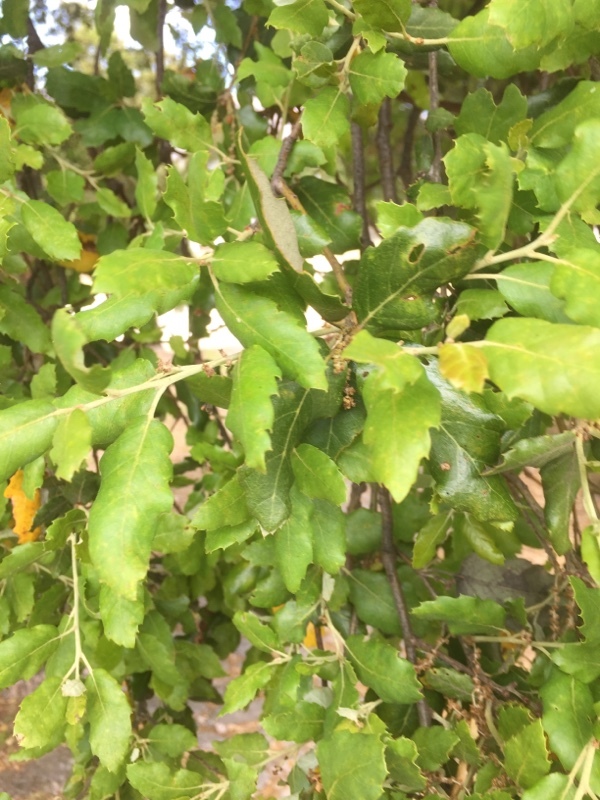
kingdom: Plantae
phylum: Tracheophyta
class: Magnoliopsida
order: Fagales
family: Fagaceae
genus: Quercus
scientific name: Quercus suber
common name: Cork oak
